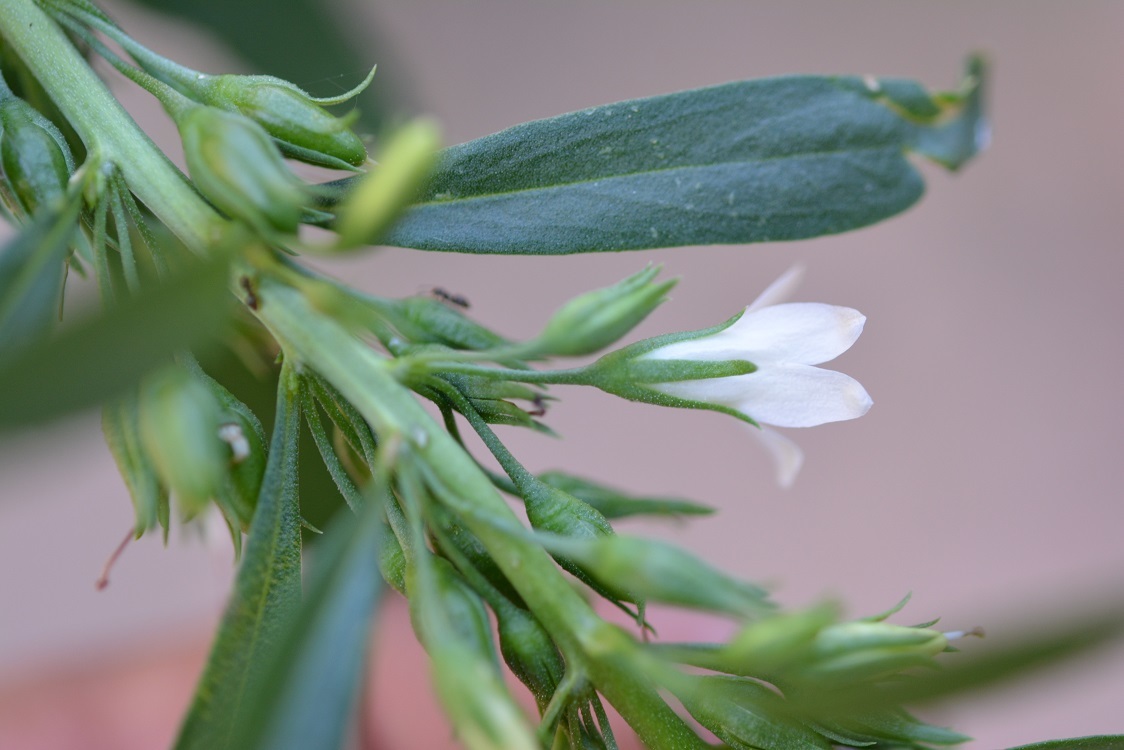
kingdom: Plantae
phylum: Tracheophyta
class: Magnoliopsida
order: Lamiales
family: Scrophulariaceae
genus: Capraria
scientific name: Capraria biflora
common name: Goatweed
